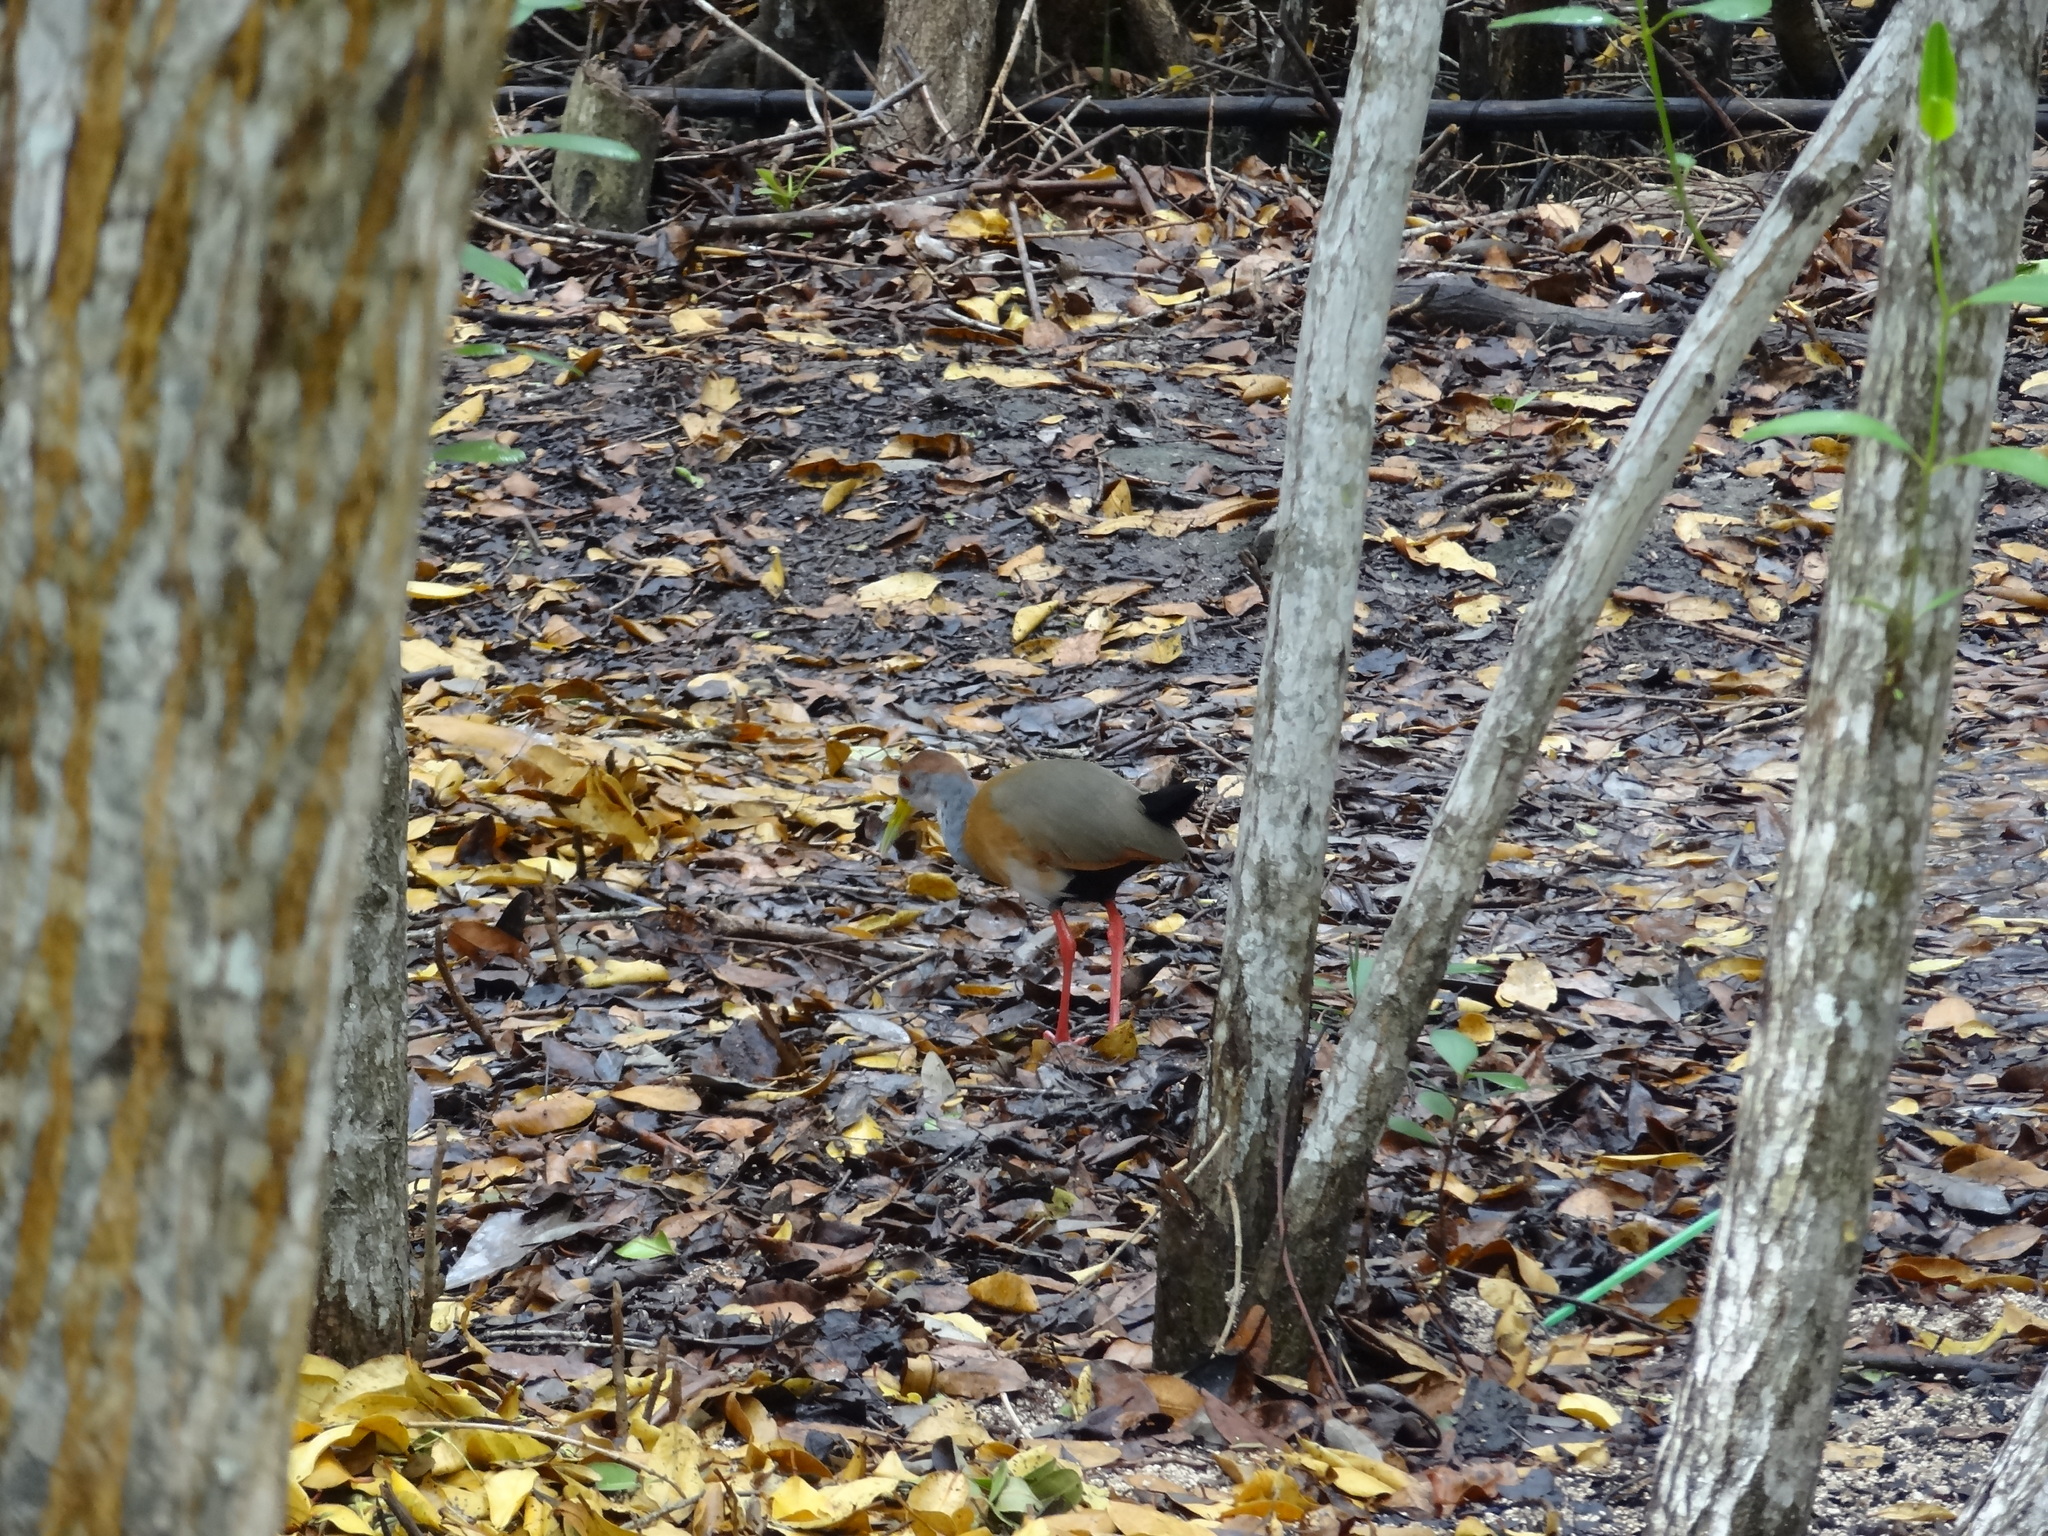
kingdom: Animalia
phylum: Chordata
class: Aves
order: Gruiformes
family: Rallidae
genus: Aramides
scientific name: Aramides albiventris
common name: Russet-naped wood-rail
